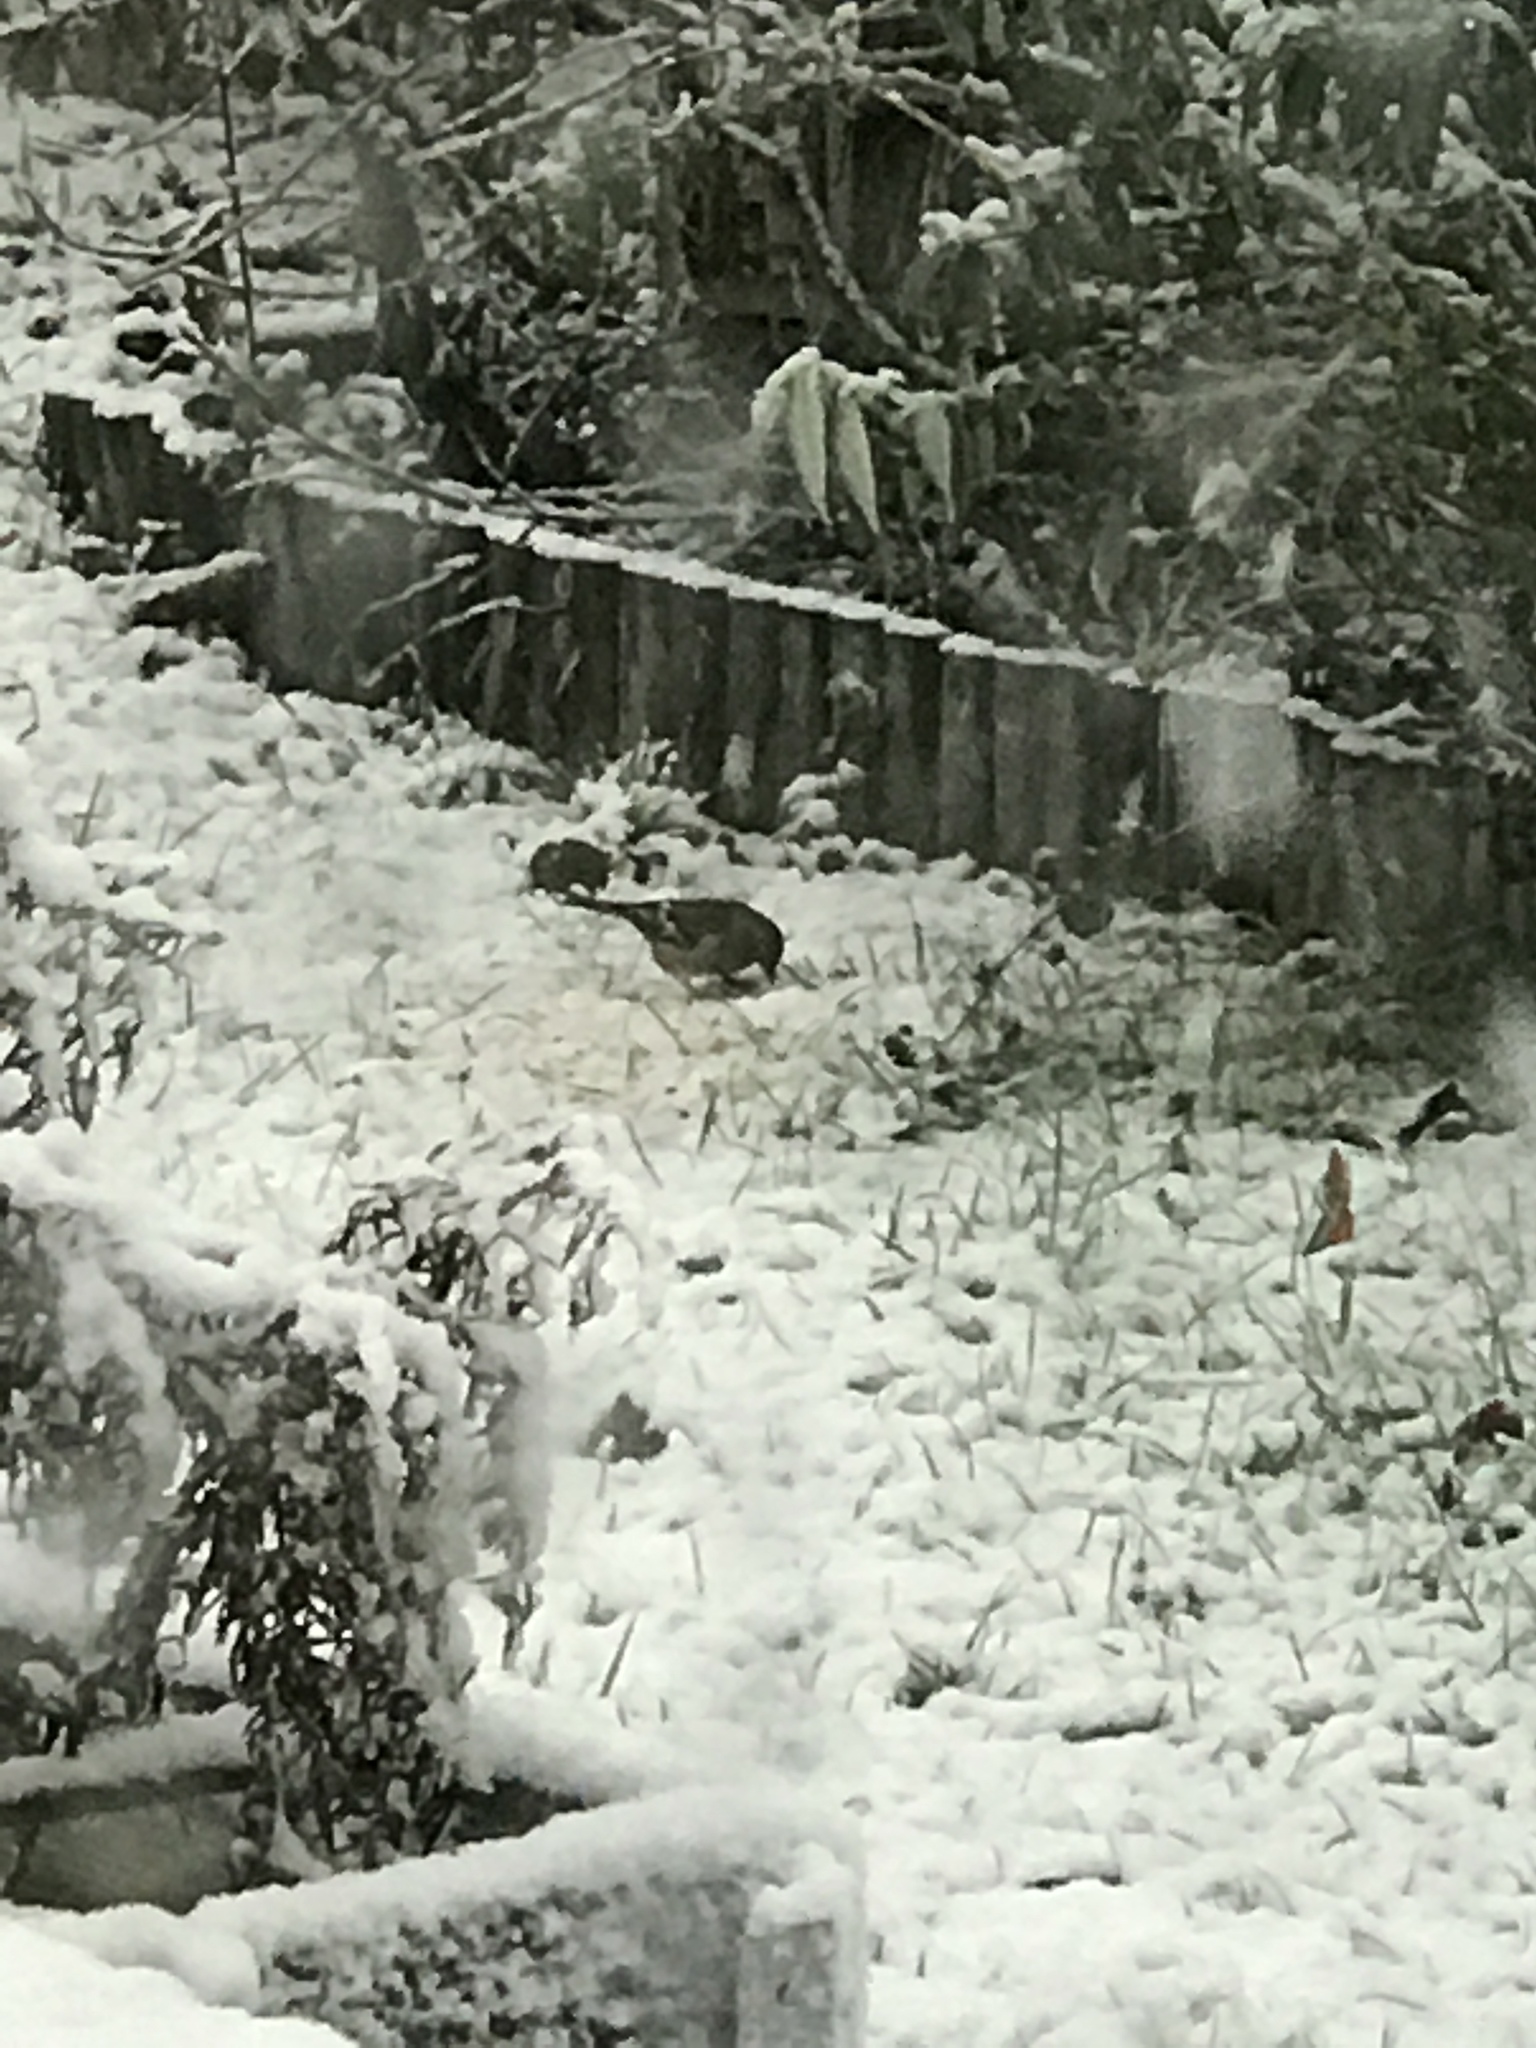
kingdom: Animalia
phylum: Chordata
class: Aves
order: Passeriformes
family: Fringillidae
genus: Fringilla
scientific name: Fringilla coelebs
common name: Common chaffinch
